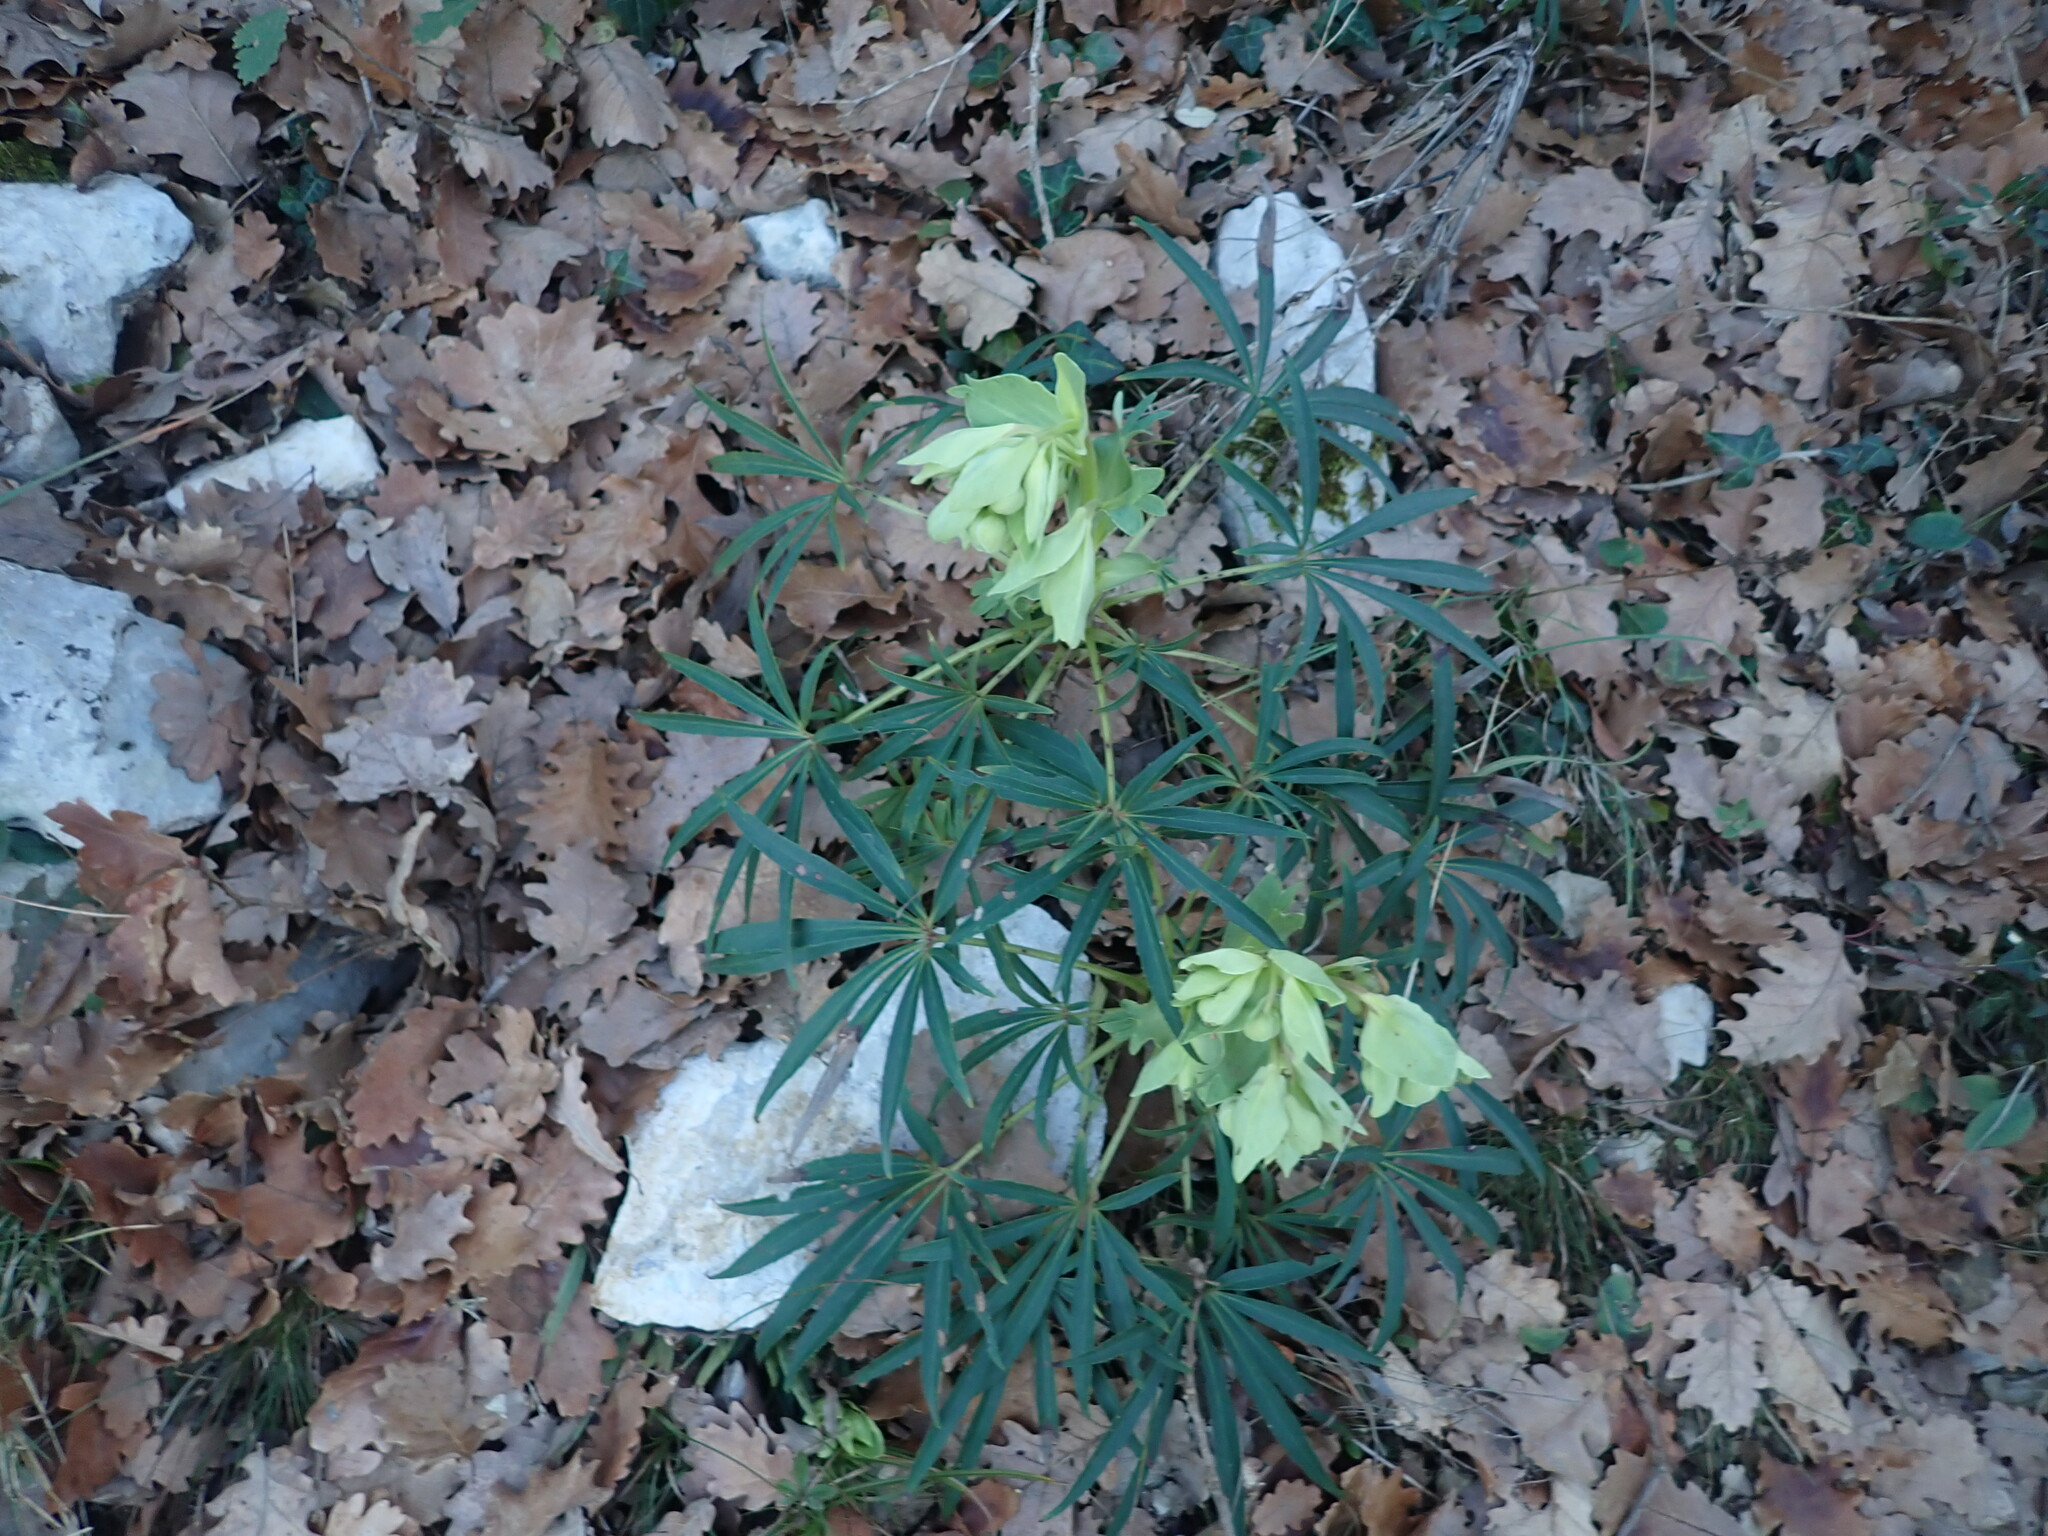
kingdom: Plantae
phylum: Tracheophyta
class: Magnoliopsida
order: Ranunculales
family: Ranunculaceae
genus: Helleborus
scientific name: Helleborus foetidus
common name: Stinking hellebore
